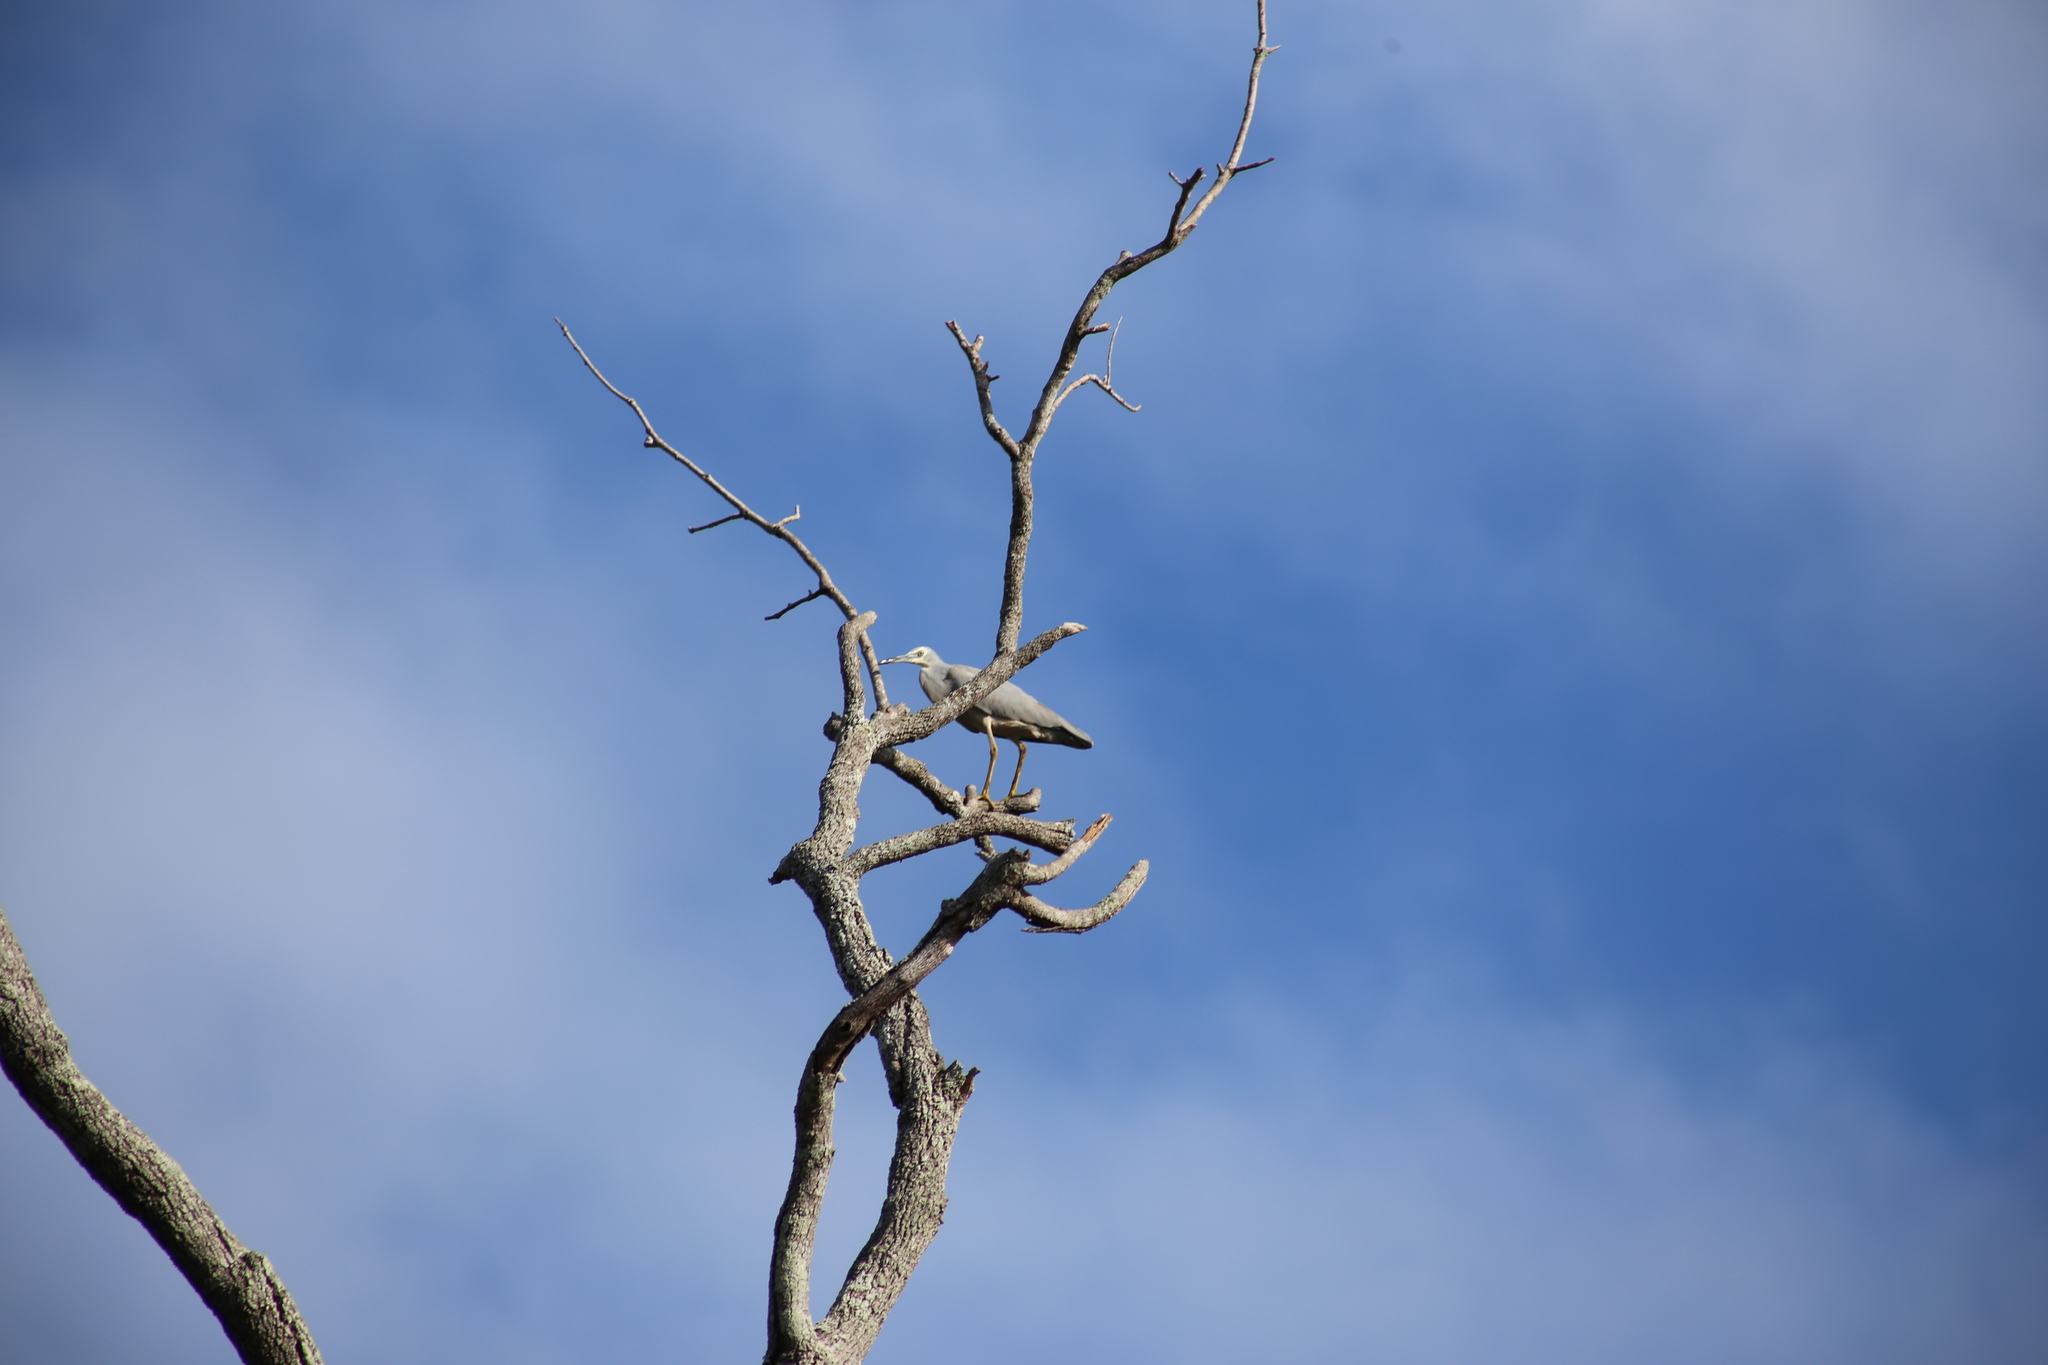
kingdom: Animalia
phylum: Chordata
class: Aves
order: Pelecaniformes
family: Ardeidae
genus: Egretta
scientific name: Egretta novaehollandiae
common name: White-faced heron
